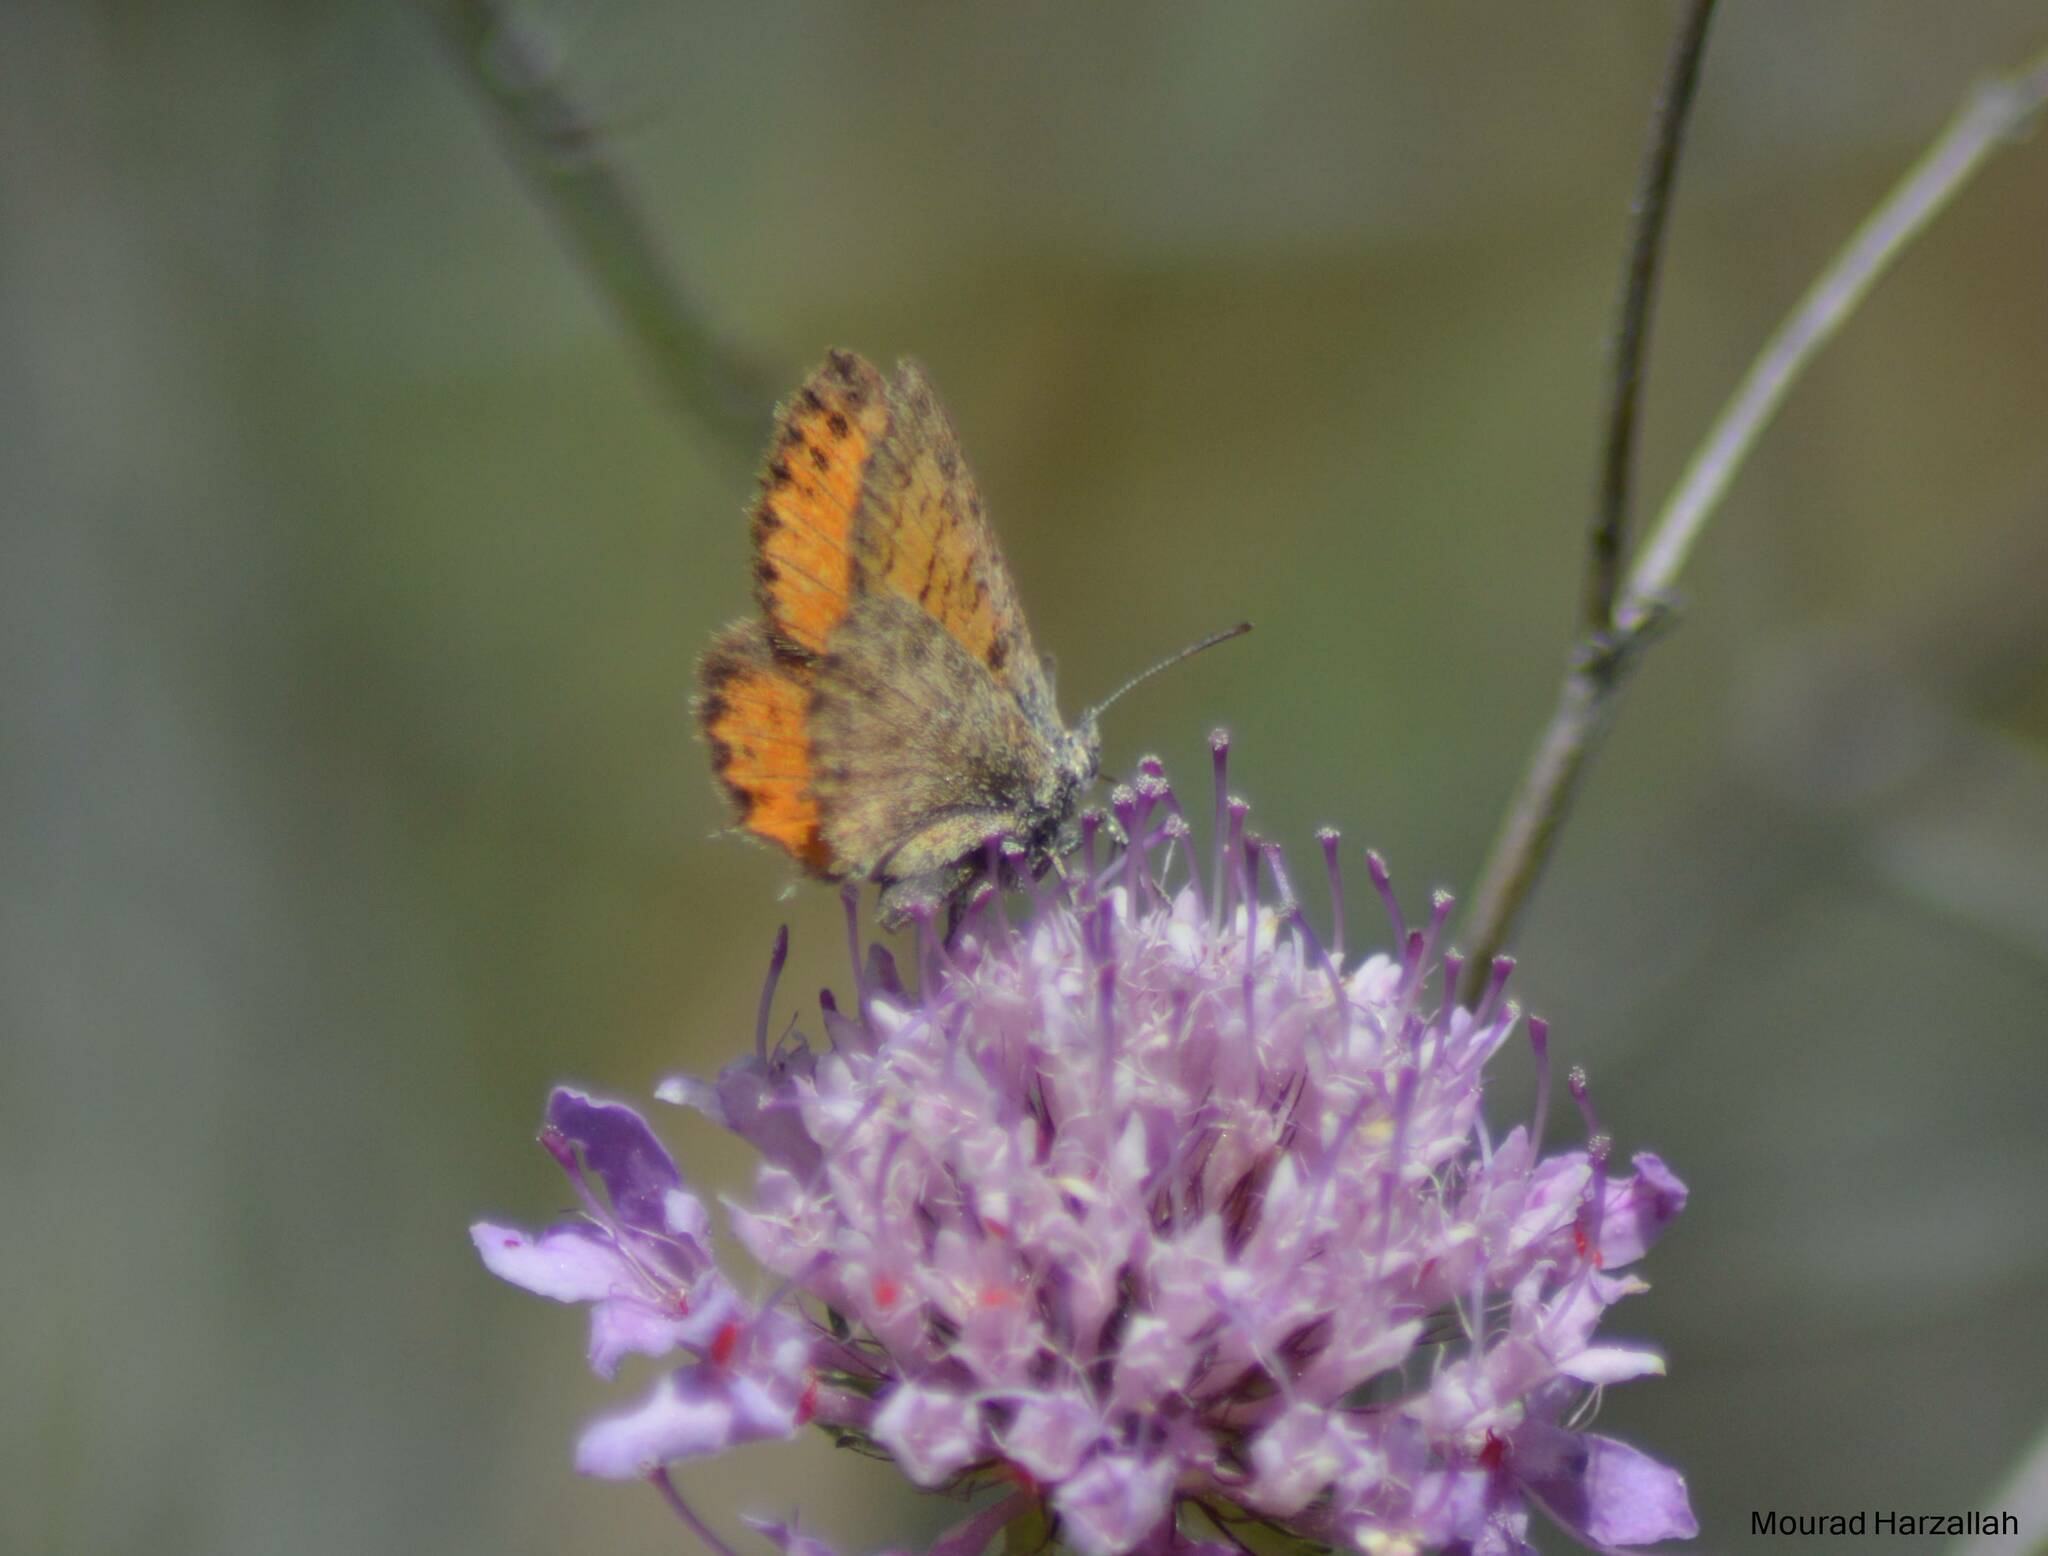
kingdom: Animalia
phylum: Arthropoda
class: Insecta
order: Lepidoptera
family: Lycaenidae
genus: Cigaritis
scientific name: Cigaritis syphax
